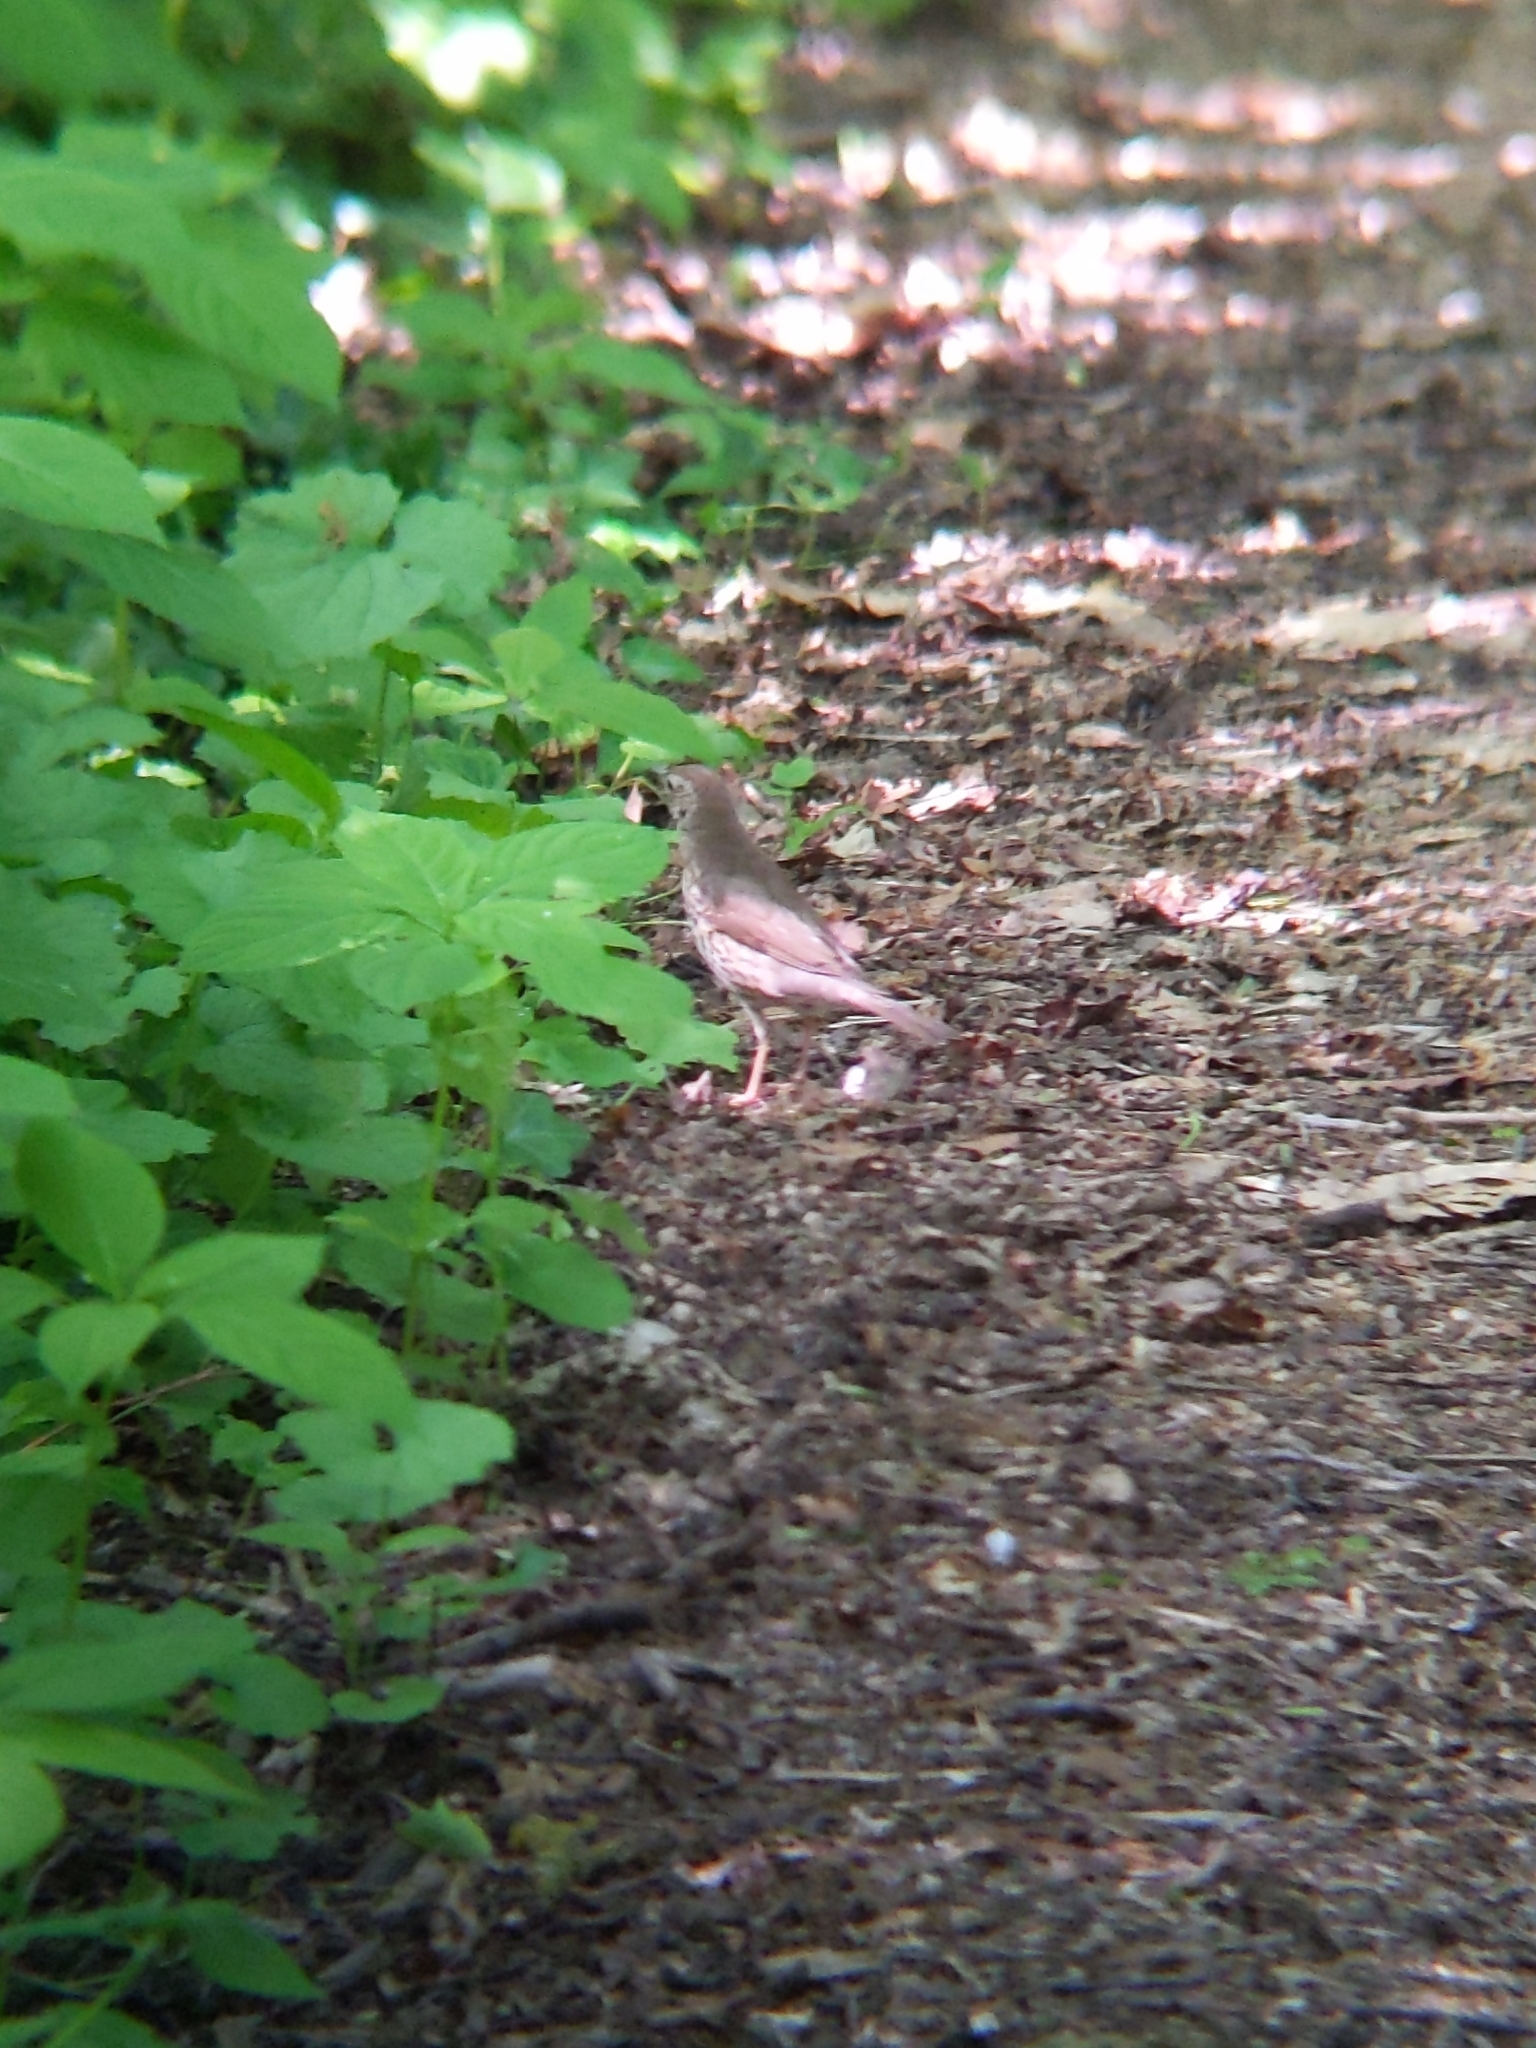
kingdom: Animalia
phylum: Chordata
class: Aves
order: Passeriformes
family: Turdidae
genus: Turdus
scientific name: Turdus philomelos
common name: Song thrush
